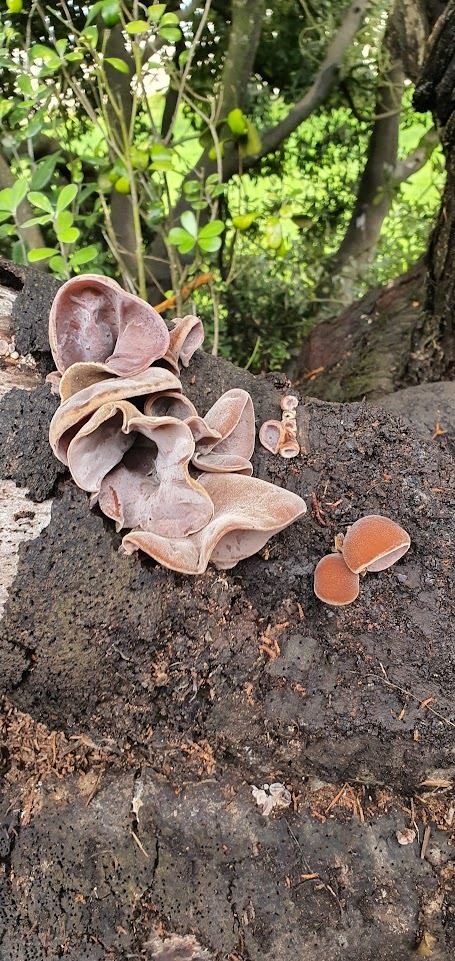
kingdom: Fungi
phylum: Basidiomycota
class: Agaricomycetes
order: Auriculariales
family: Auriculariaceae
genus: Auricularia
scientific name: Auricularia cornea
